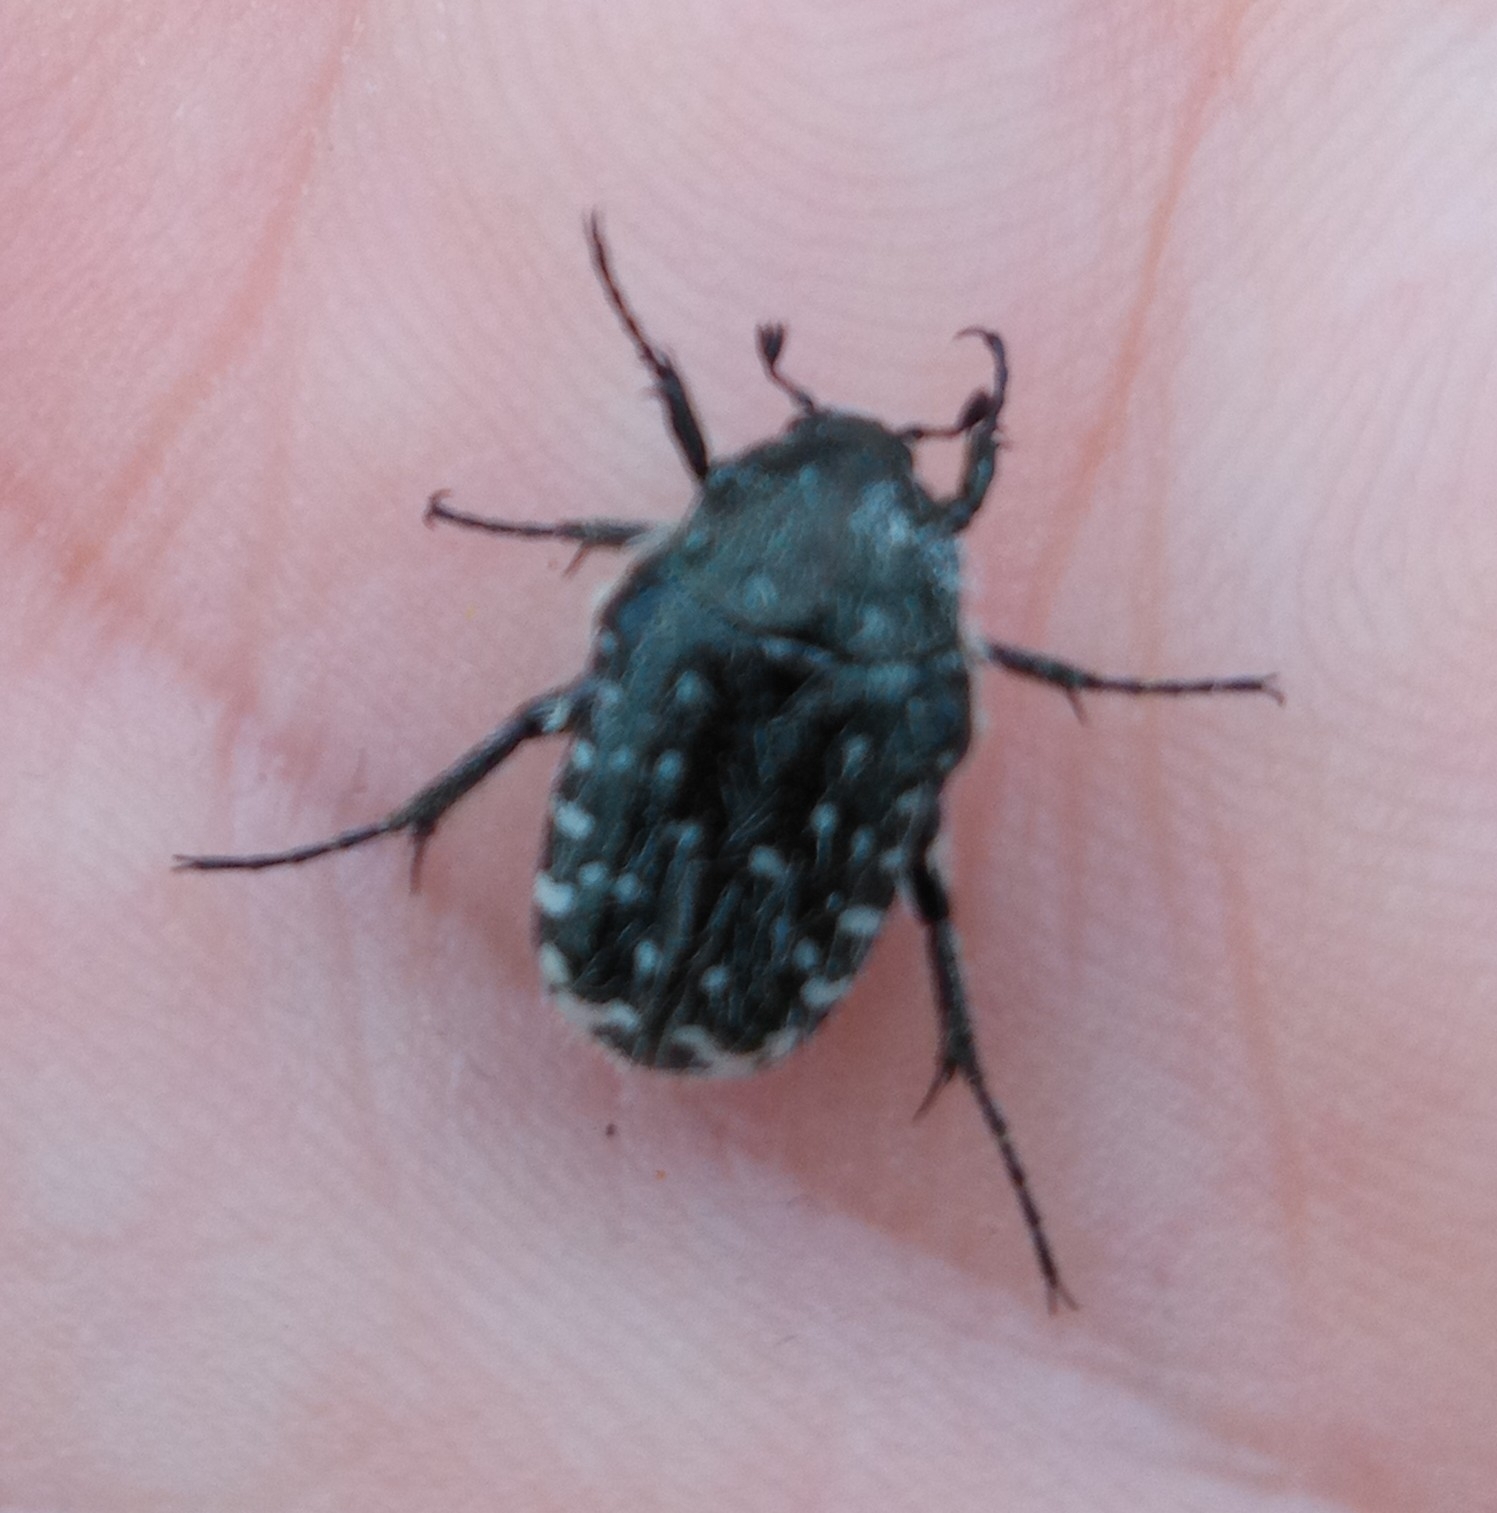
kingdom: Animalia
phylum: Arthropoda
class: Insecta
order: Coleoptera
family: Scarabaeidae
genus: Oxythyrea
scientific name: Oxythyrea funesta
